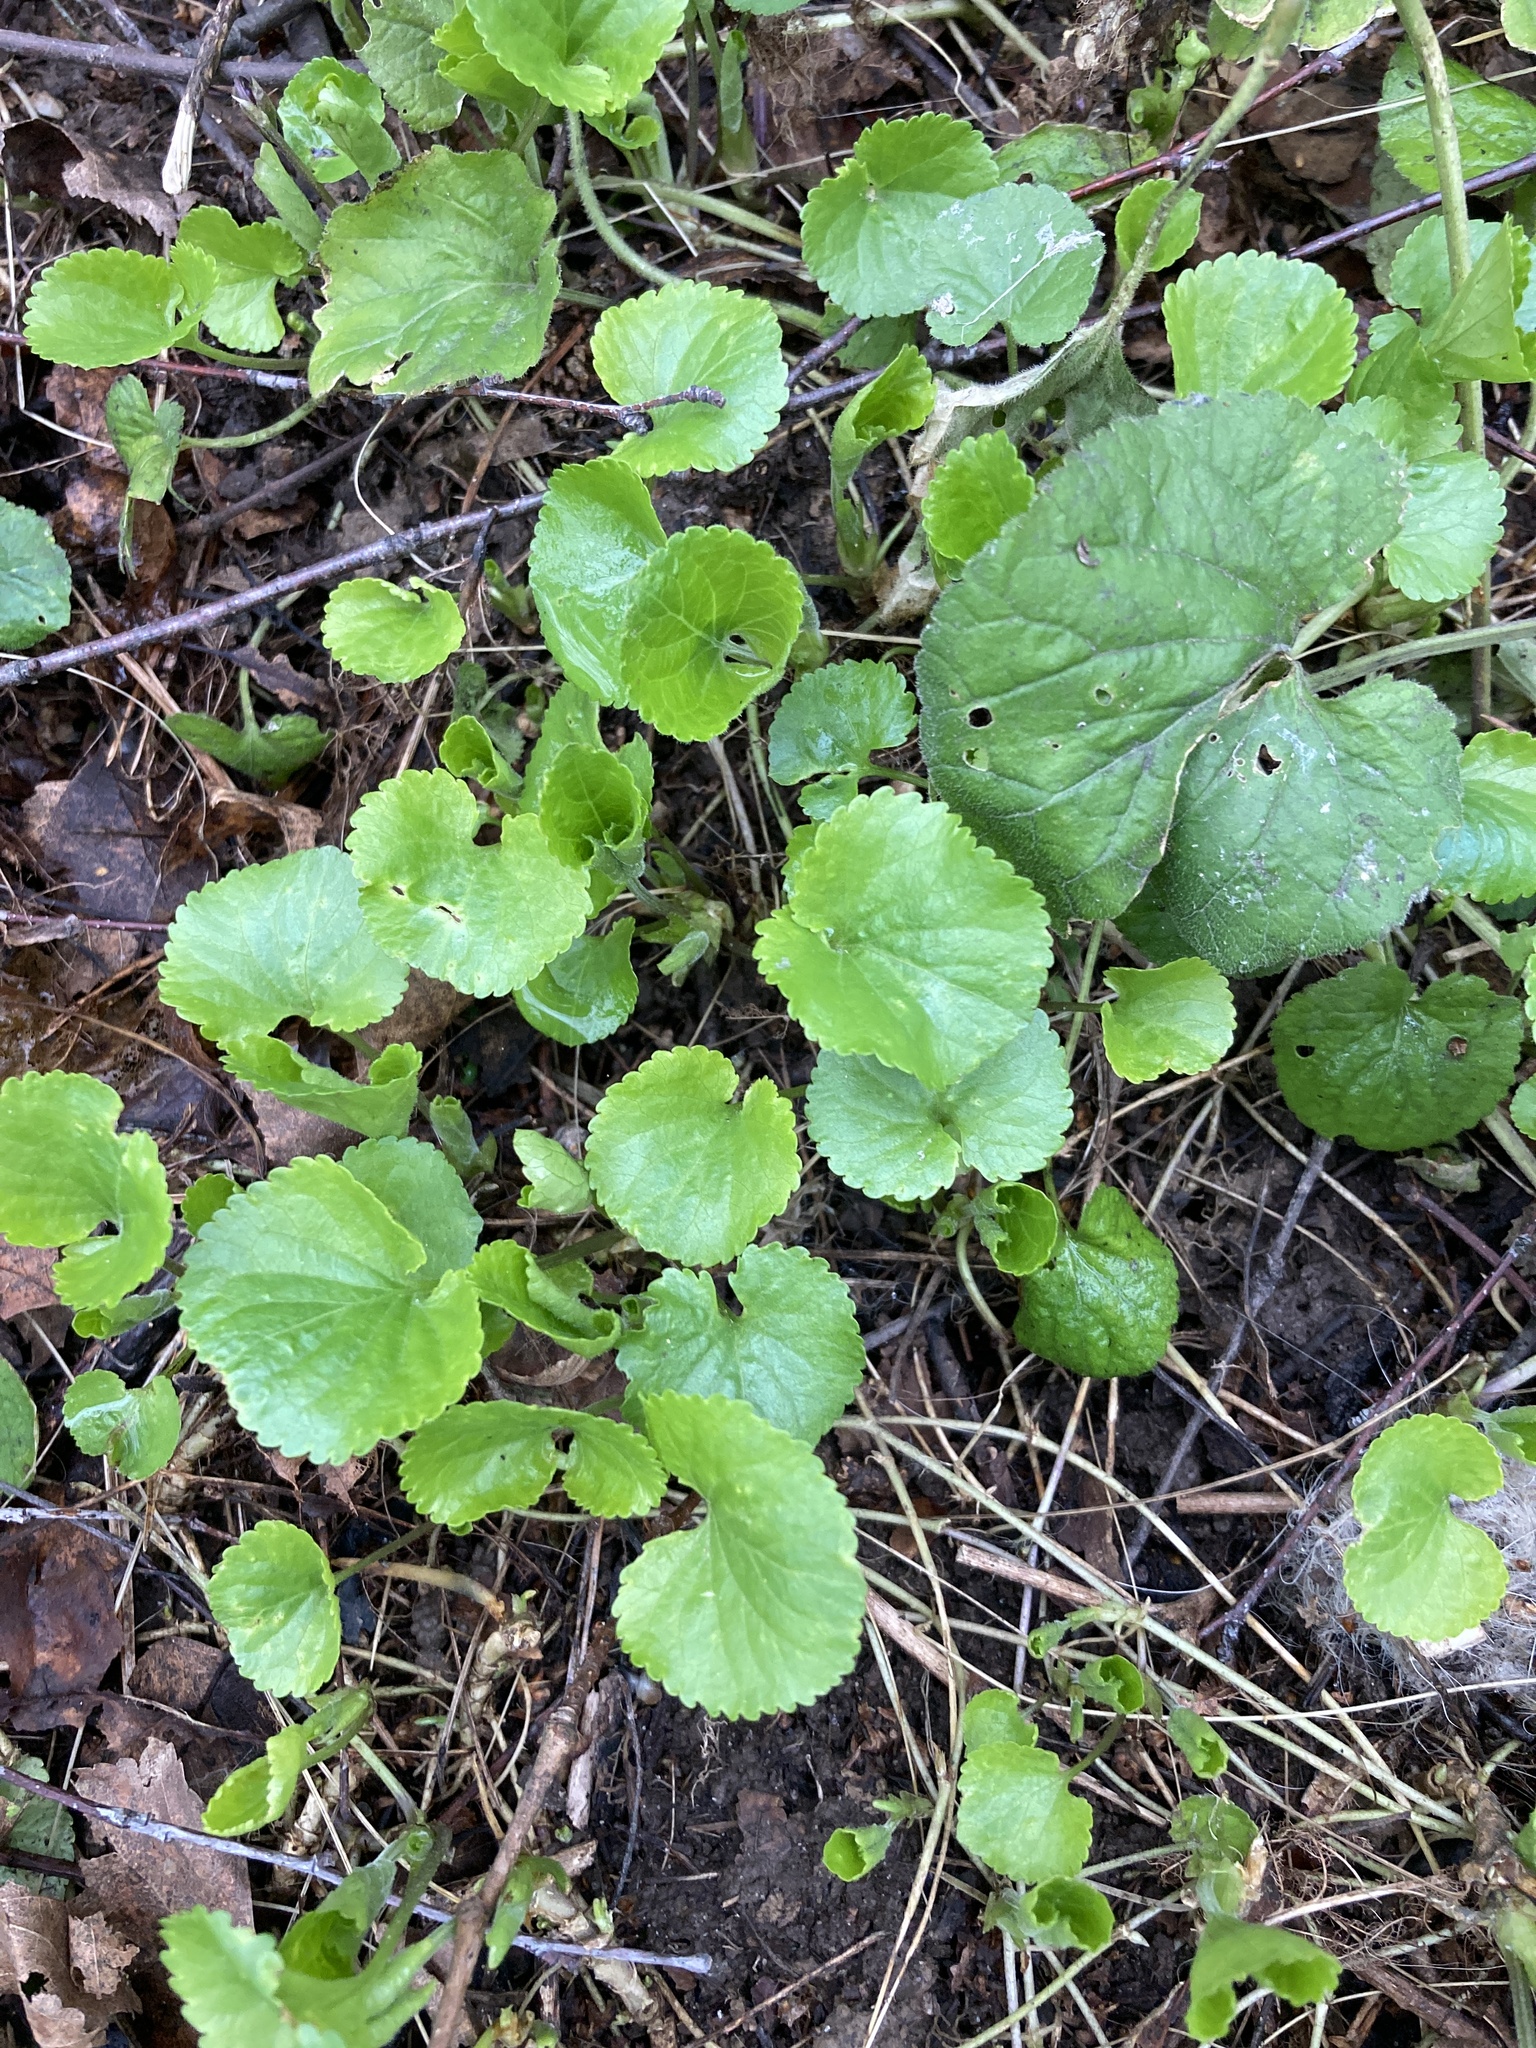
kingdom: Plantae
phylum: Tracheophyta
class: Magnoliopsida
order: Malpighiales
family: Violaceae
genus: Viola
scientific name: Viola odorata
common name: Sweet violet
